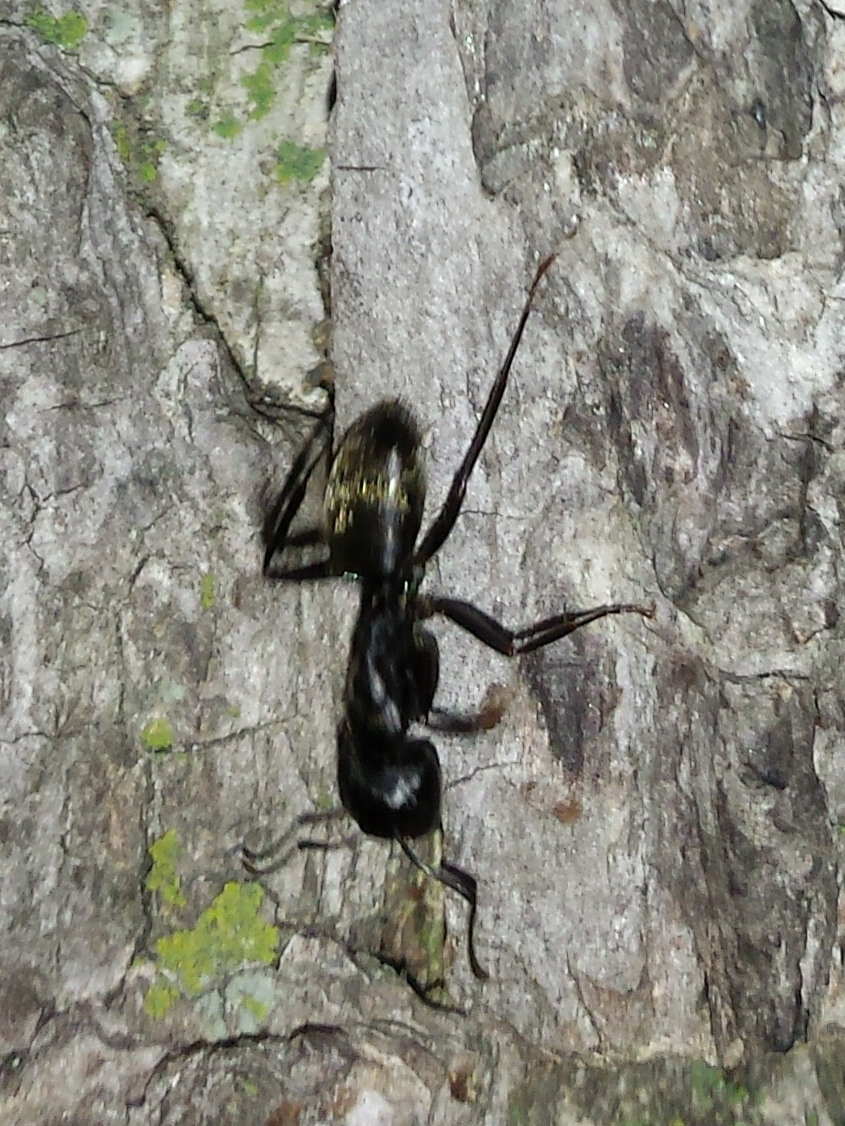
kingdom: Animalia
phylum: Arthropoda
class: Insecta
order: Hymenoptera
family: Formicidae
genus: Camponotus
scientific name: Camponotus pennsylvanicus
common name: Black carpenter ant
